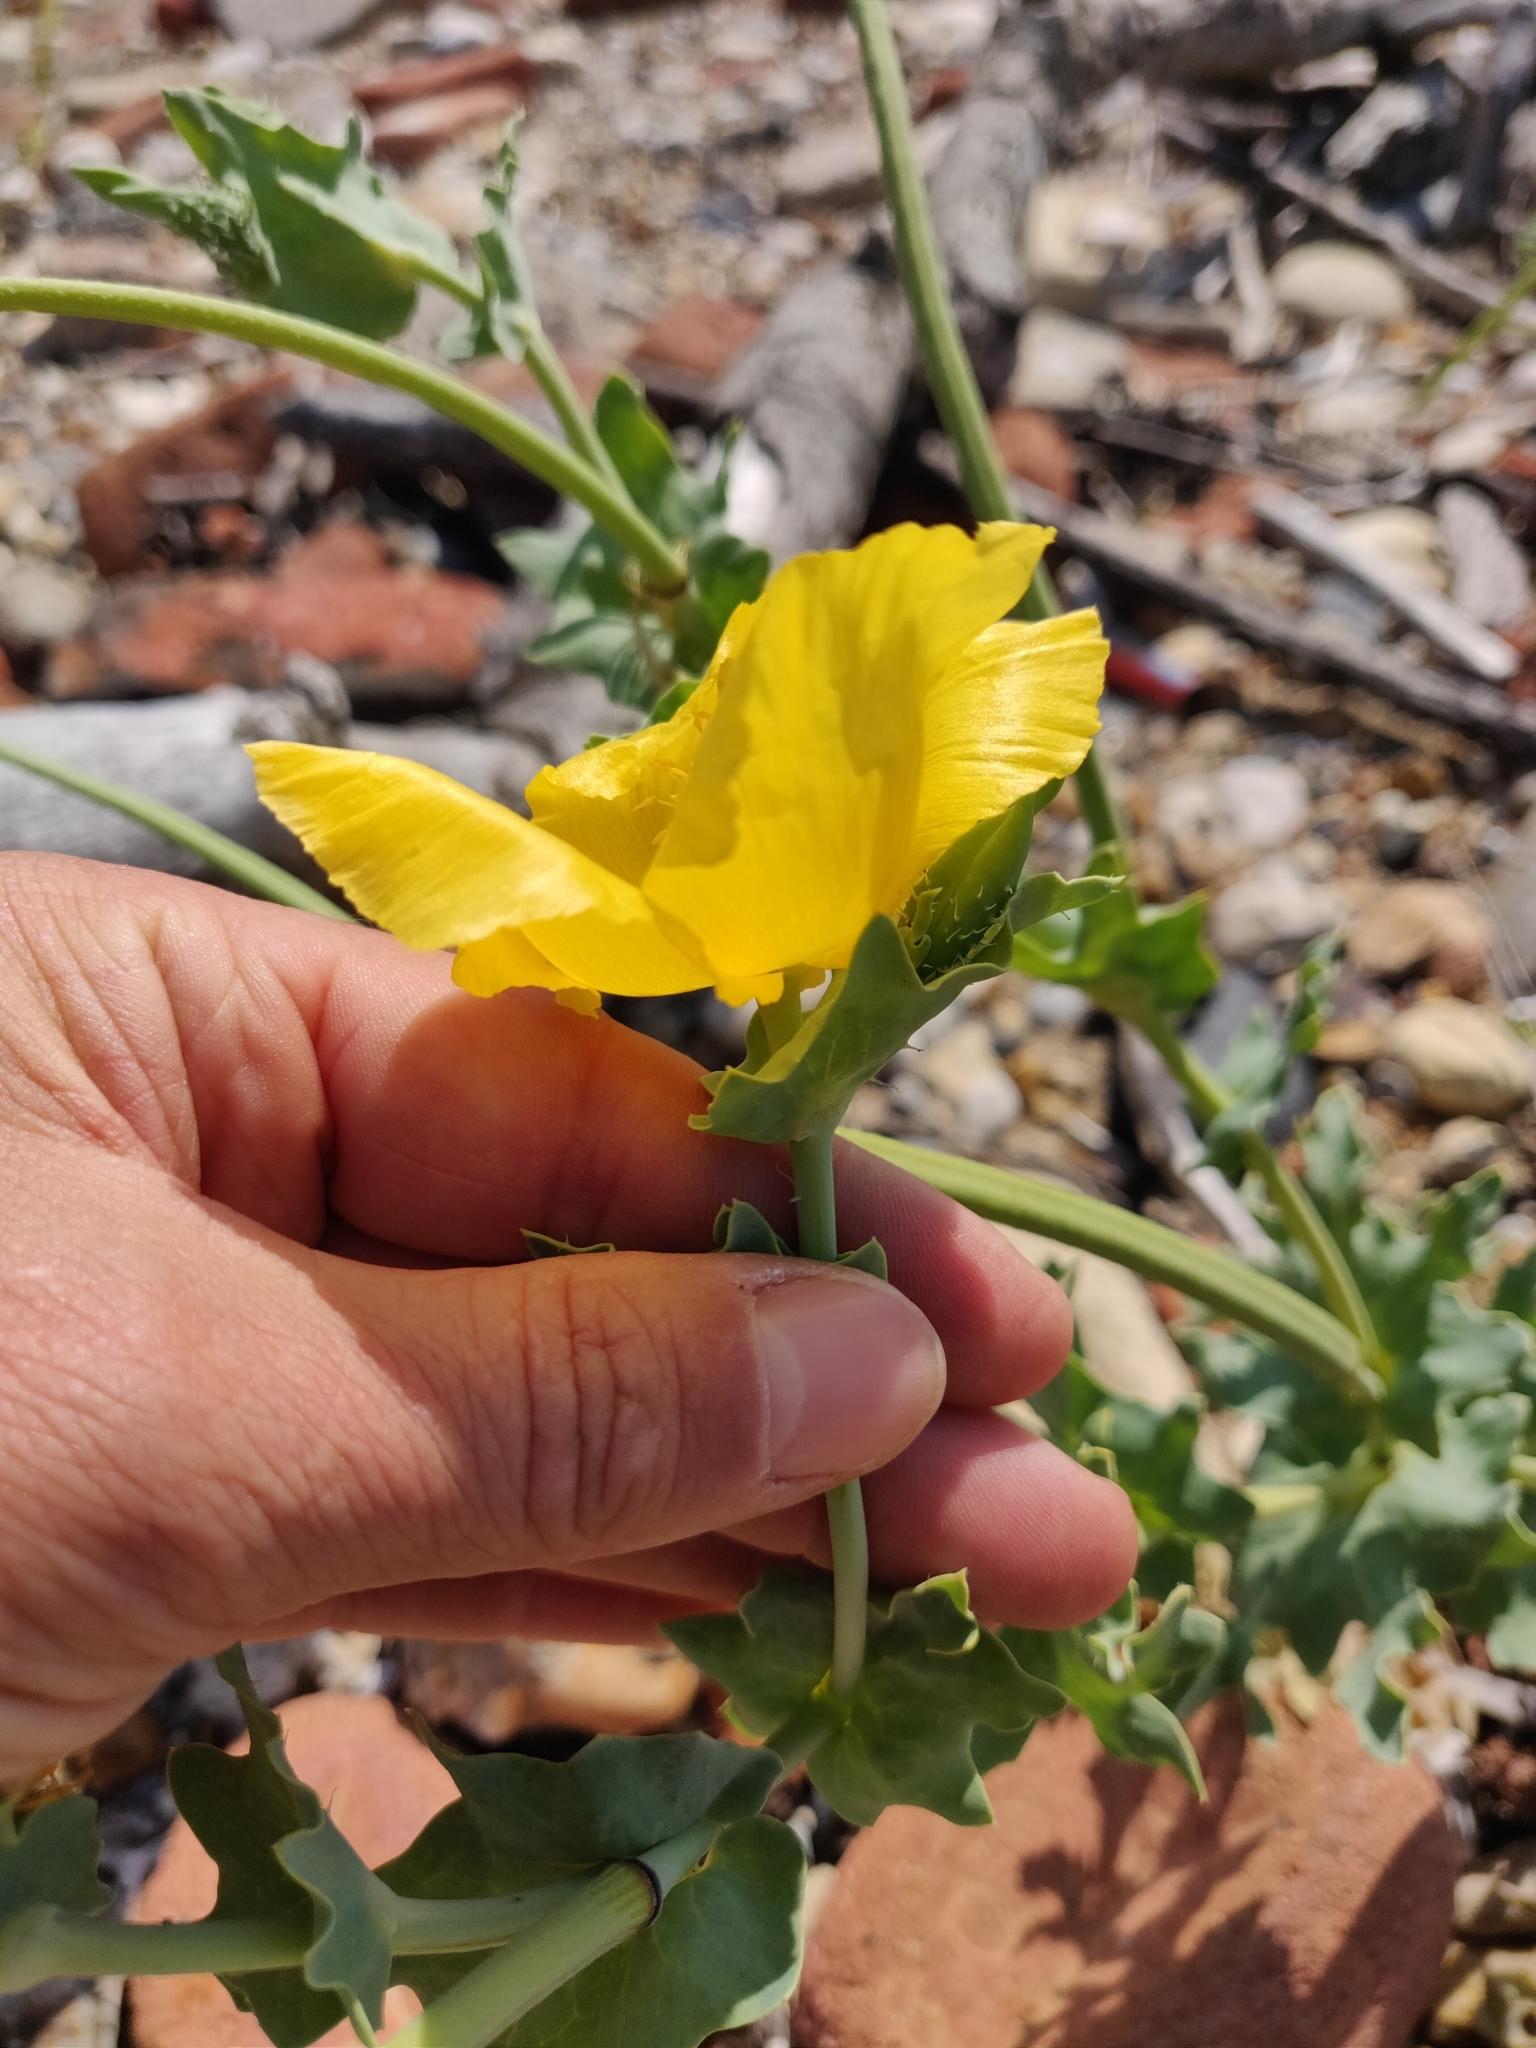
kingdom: Plantae
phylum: Tracheophyta
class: Magnoliopsida
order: Ranunculales
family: Papaveraceae
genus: Glaucium
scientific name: Glaucium flavum
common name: Yellow horned-poppy
